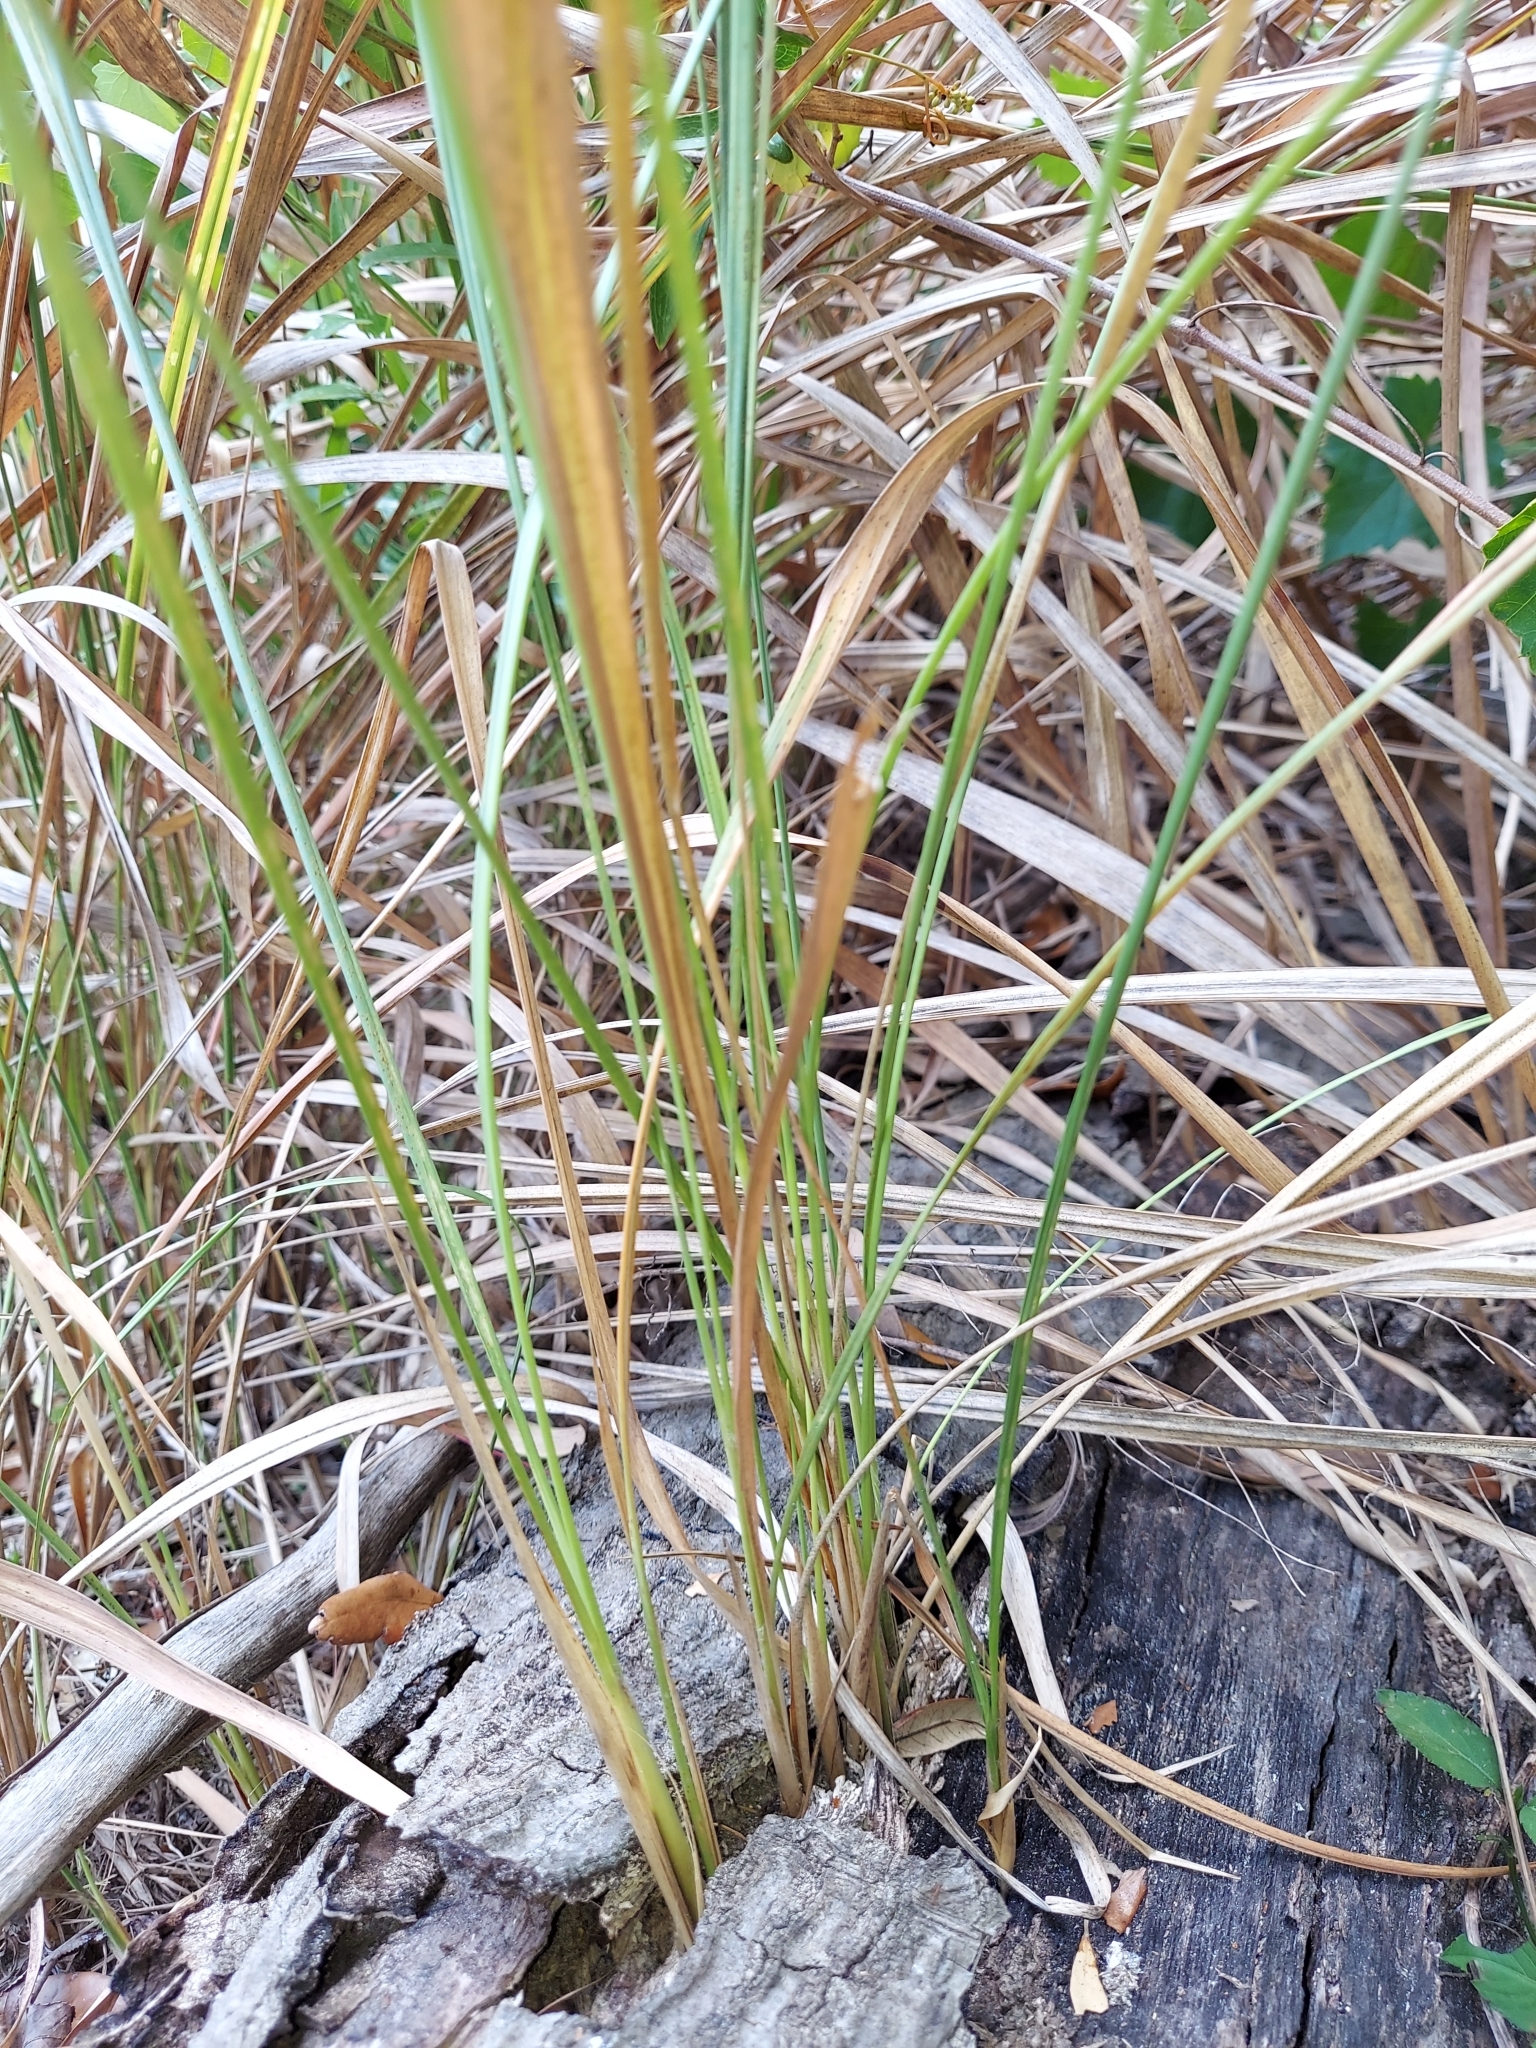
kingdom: Plantae
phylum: Tracheophyta
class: Liliopsida
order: Poales
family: Poaceae
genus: Imperata
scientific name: Imperata cylindrica
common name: Cogongrass
